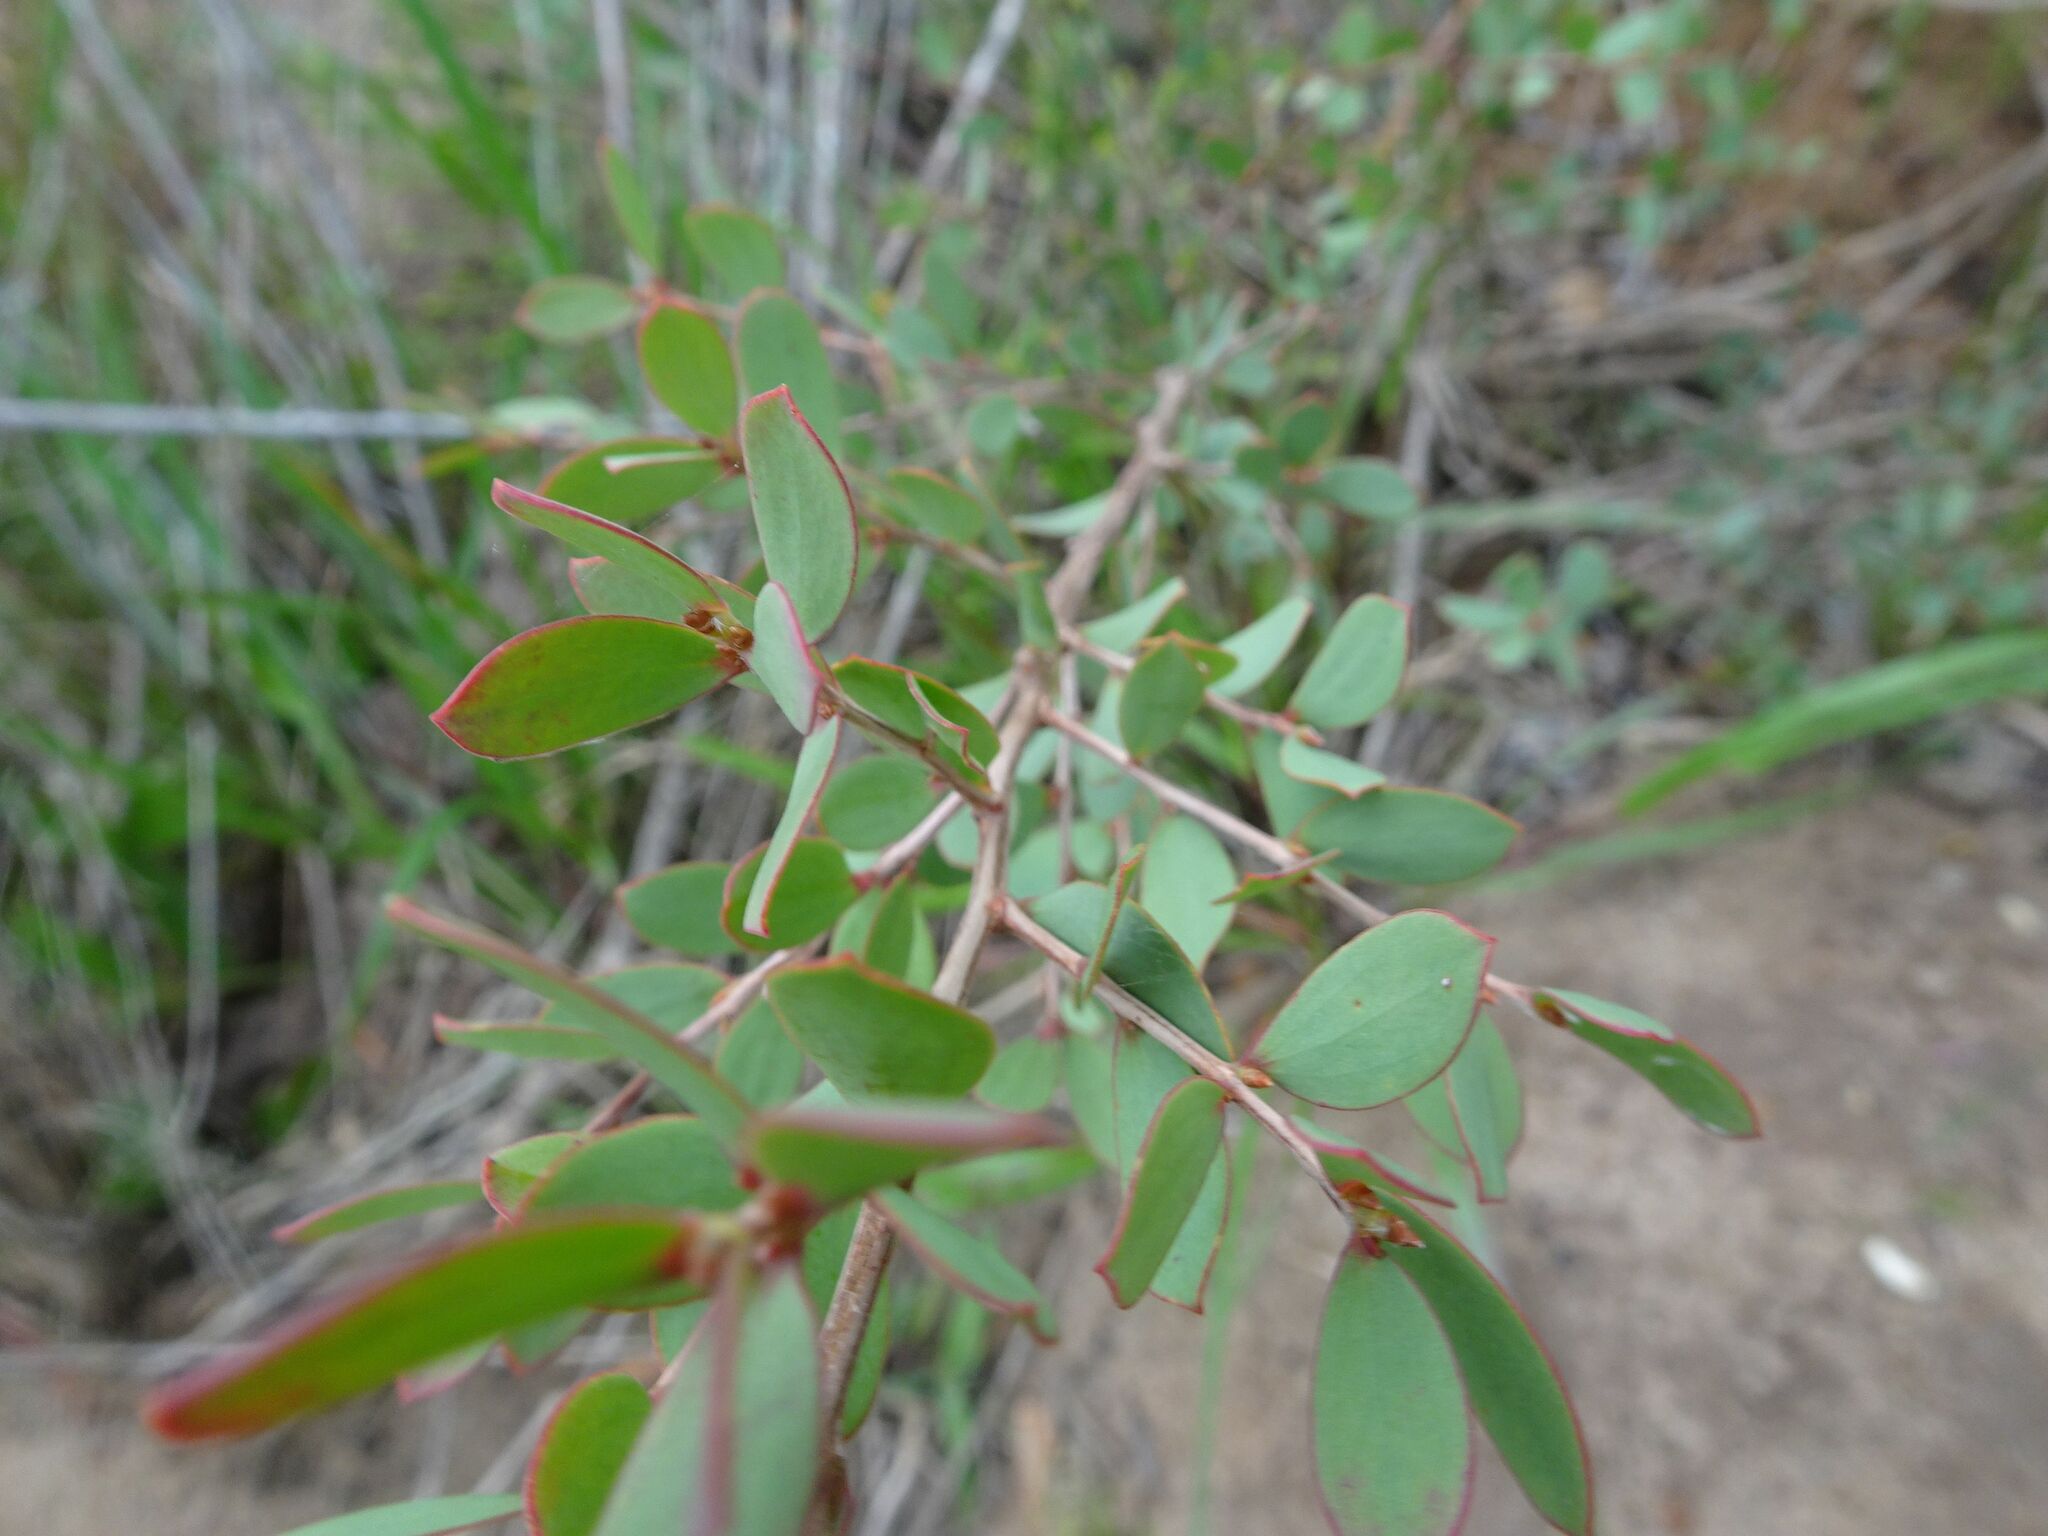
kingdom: Plantae
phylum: Tracheophyta
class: Magnoliopsida
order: Myrtales
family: Myrtaceae
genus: Leptospermum
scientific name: Leptospermum laevigatum
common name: Australian teatree
